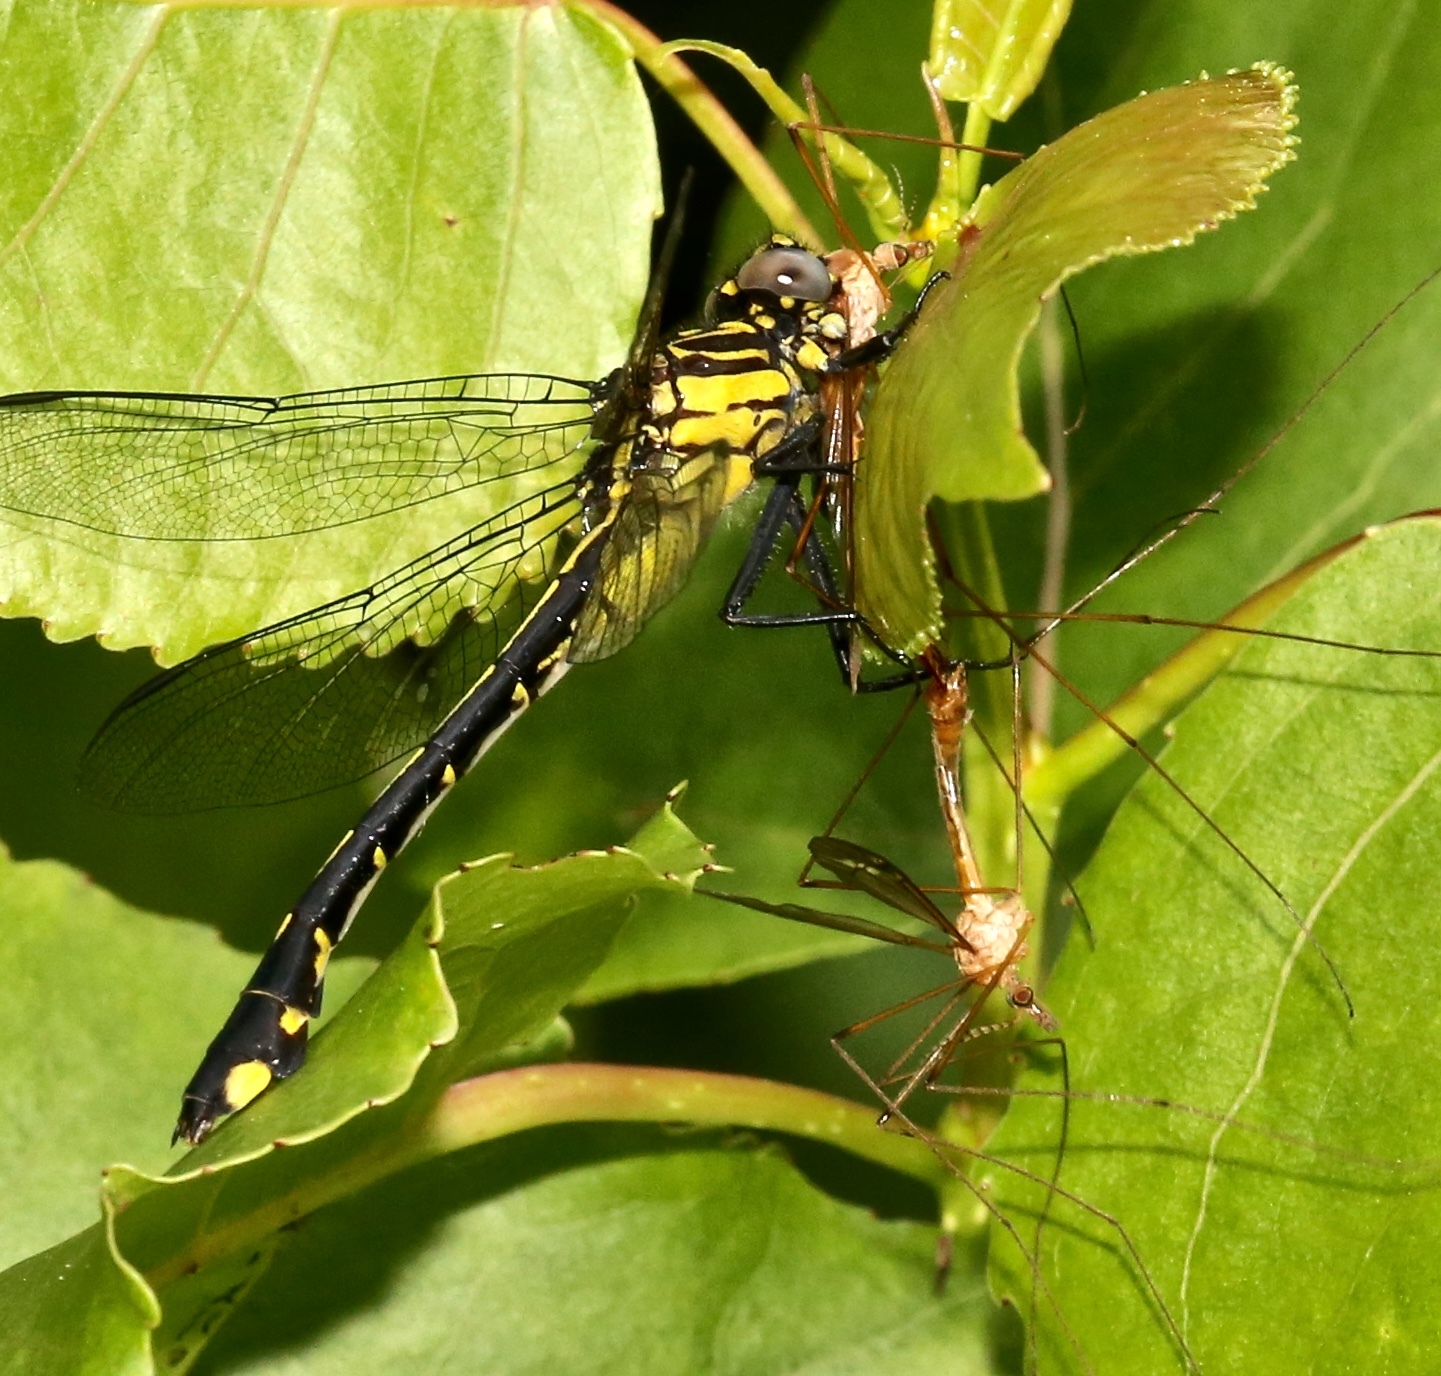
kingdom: Animalia
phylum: Arthropoda
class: Insecta
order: Odonata
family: Gomphidae
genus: Gomphurus
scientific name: Gomphurus vastus
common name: Cobra clubtail
